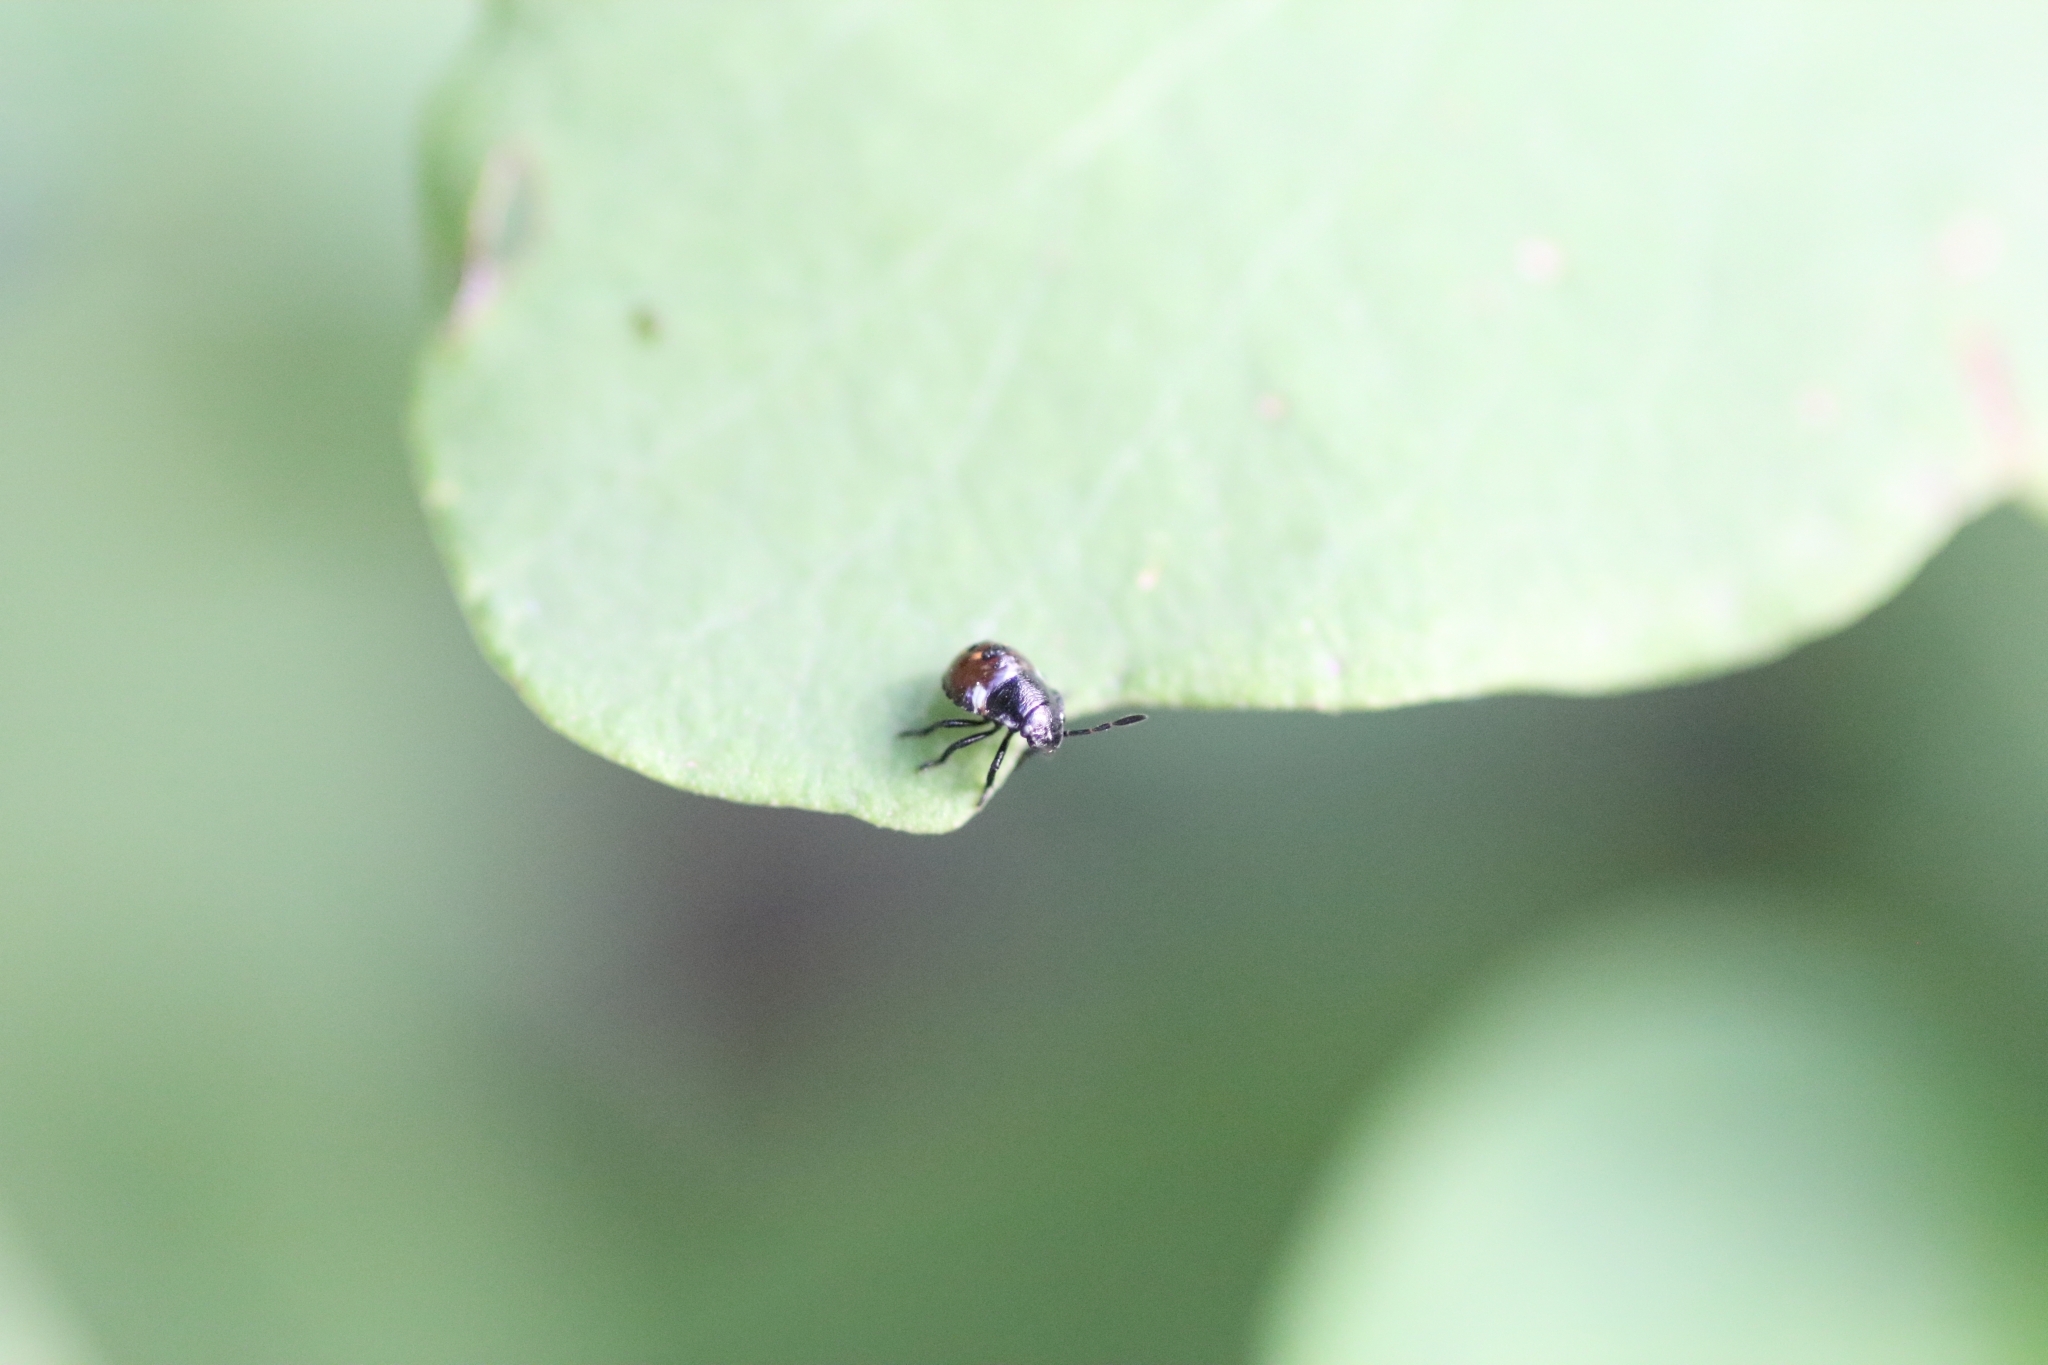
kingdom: Animalia
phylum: Arthropoda
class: Insecta
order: Hemiptera
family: Pentatomidae
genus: Nezara
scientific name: Nezara viridula
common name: Southern green stink bug
